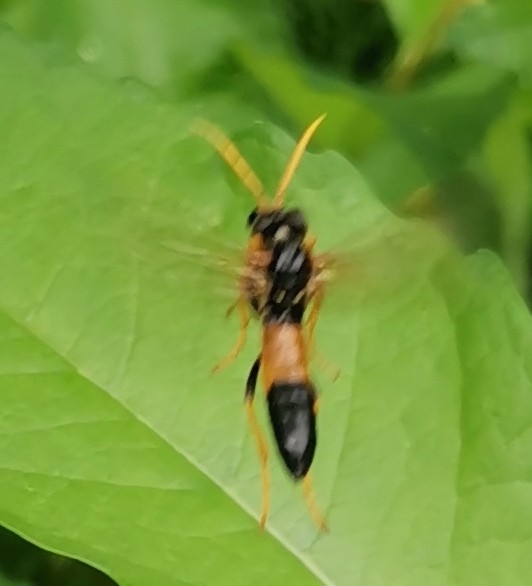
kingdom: Animalia
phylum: Arthropoda
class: Insecta
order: Hymenoptera
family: Tenthredinidae
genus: Tenthredo
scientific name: Tenthredo campestris
